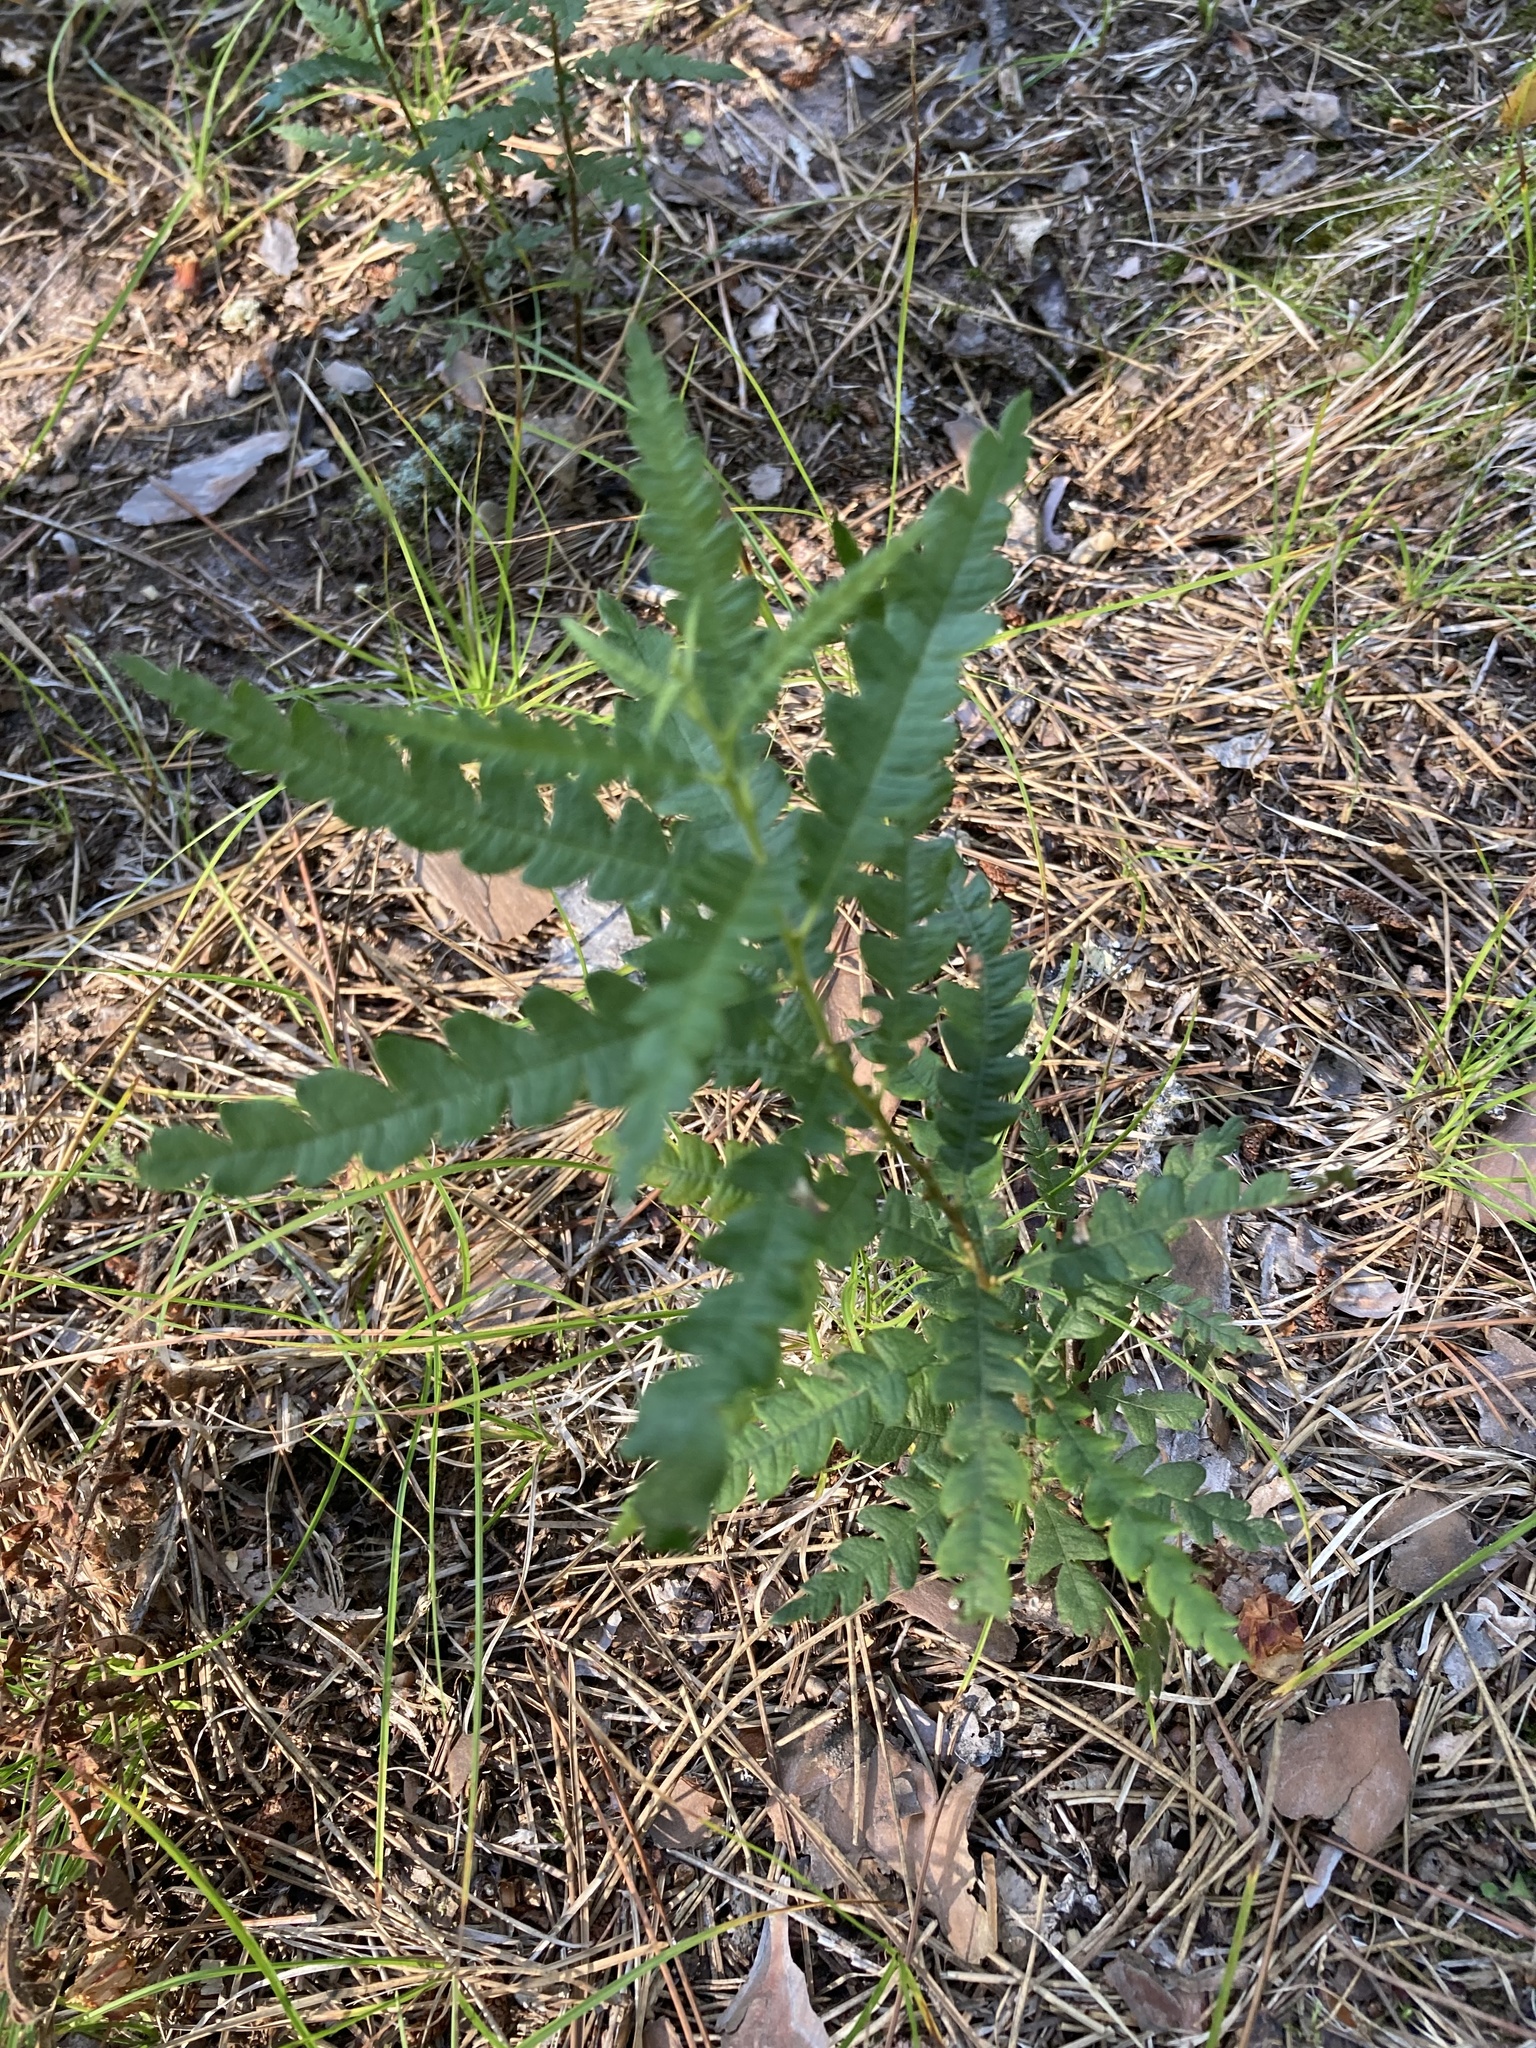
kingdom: Plantae
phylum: Tracheophyta
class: Magnoliopsida
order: Fagales
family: Myricaceae
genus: Comptonia
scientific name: Comptonia peregrina
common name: Sweet-fern
